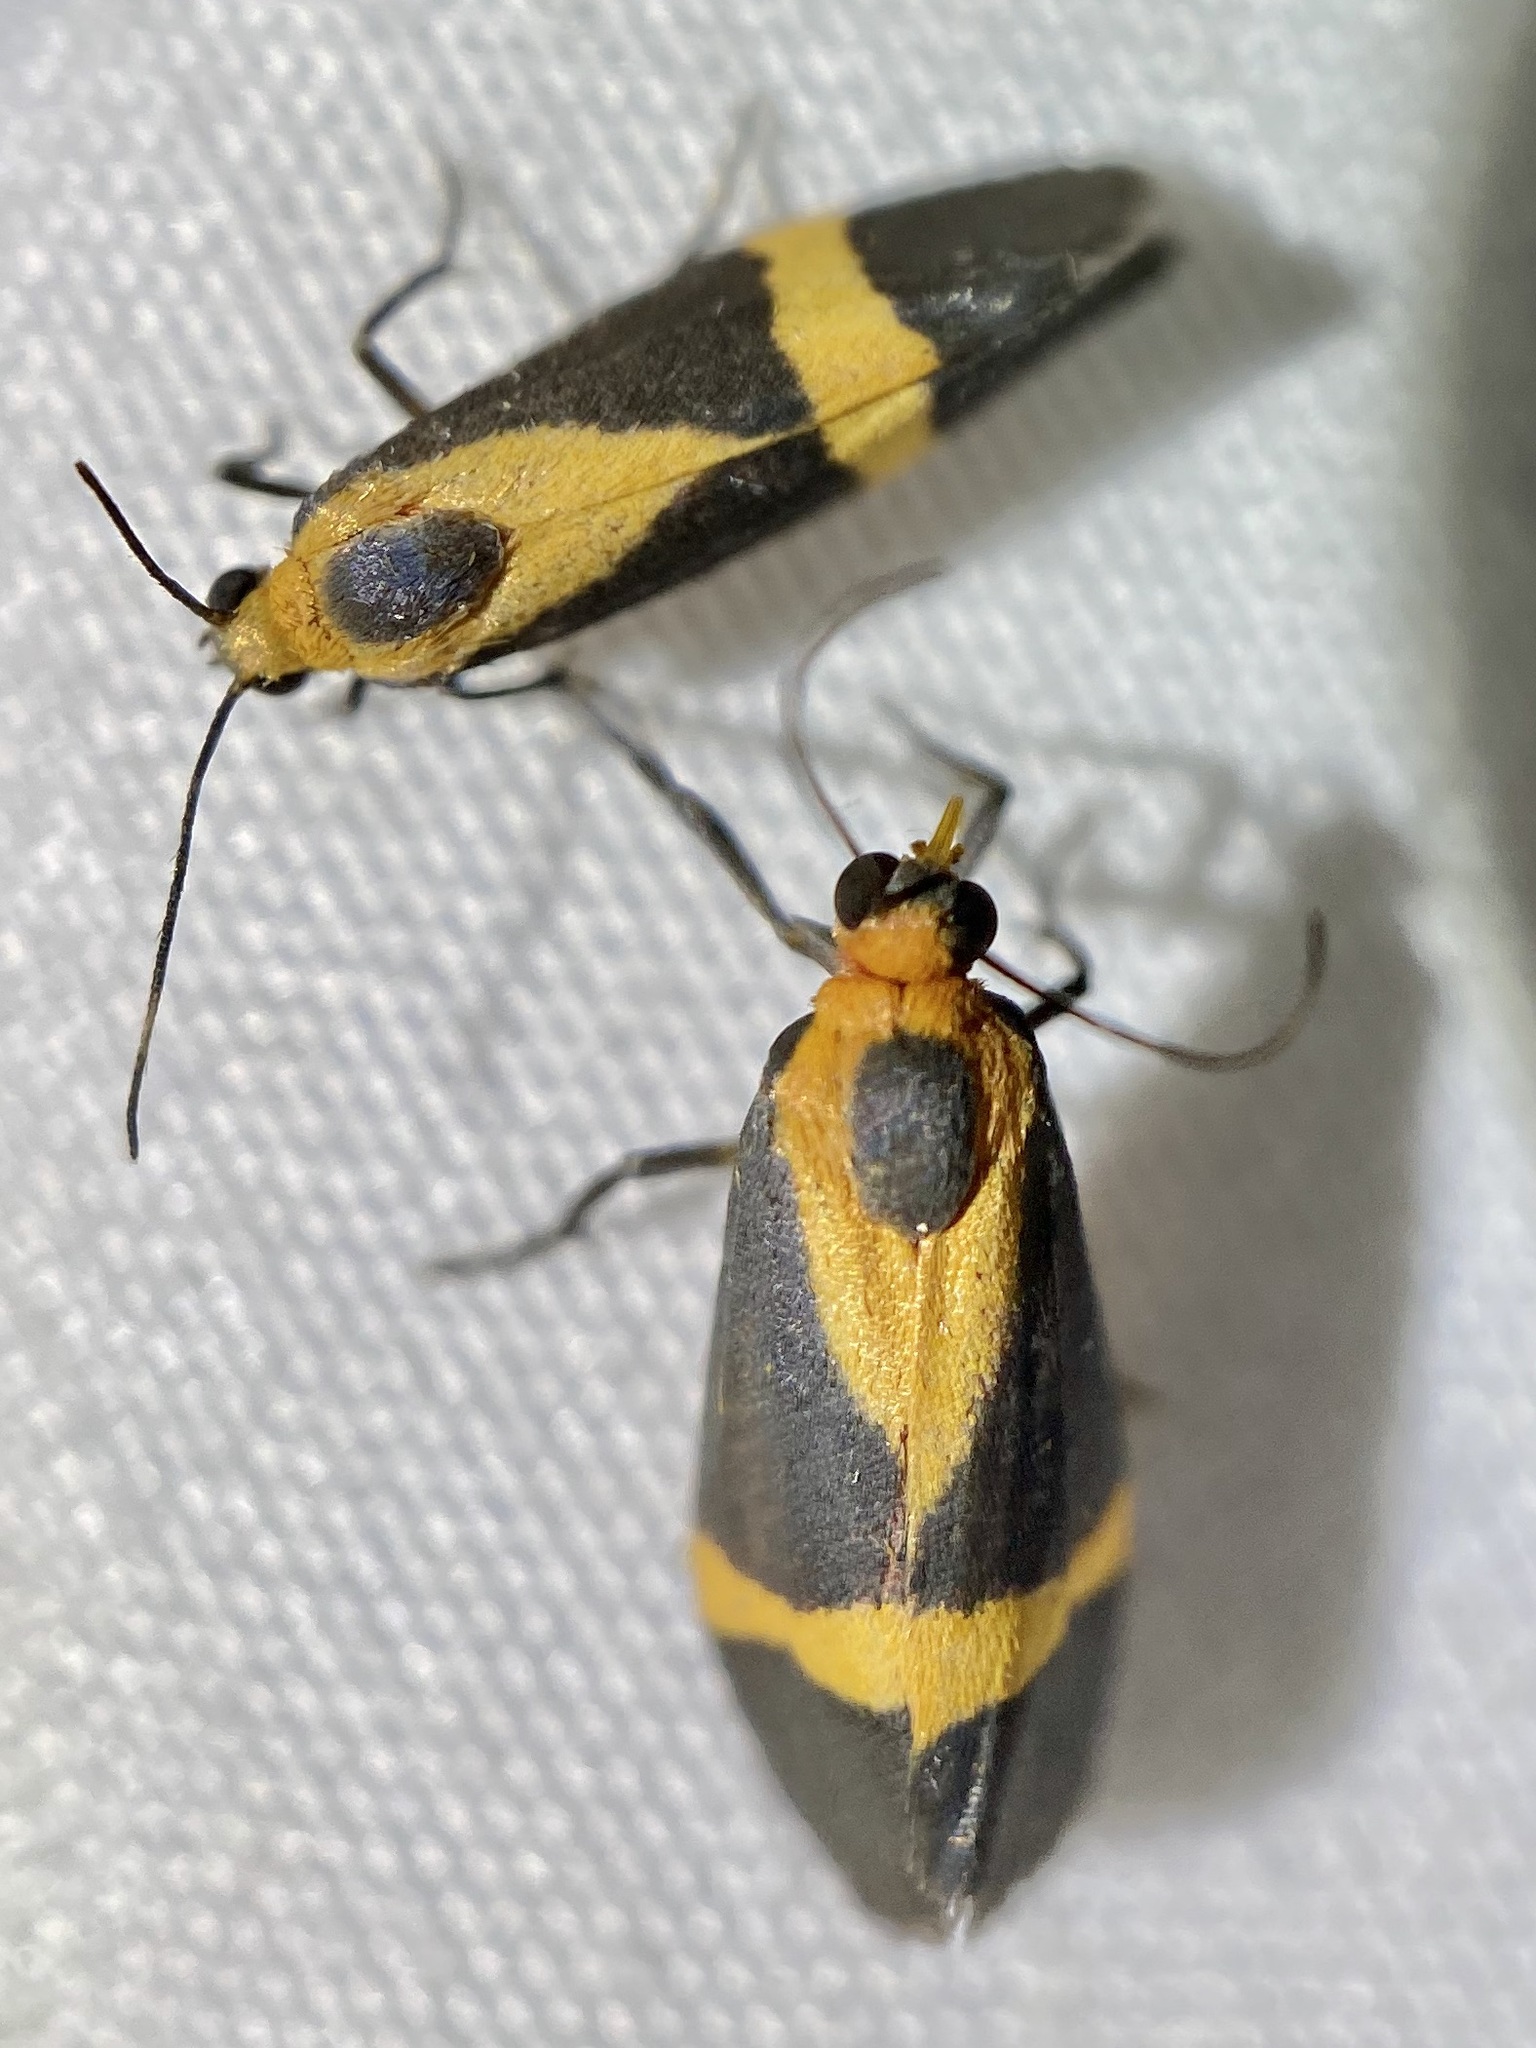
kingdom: Animalia
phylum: Arthropoda
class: Insecta
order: Lepidoptera
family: Erebidae
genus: Cisthene
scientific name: Cisthene tenuifascia
